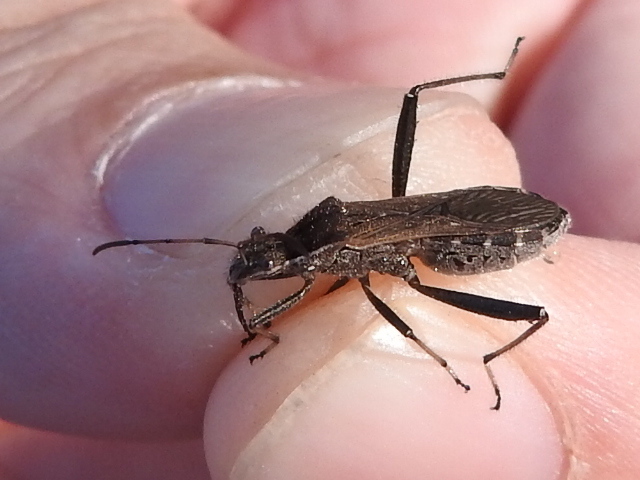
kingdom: Animalia
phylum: Arthropoda
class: Insecta
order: Hemiptera
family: Alydidae
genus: Alydus
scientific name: Alydus pilosulus
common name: Broad-headed bug
